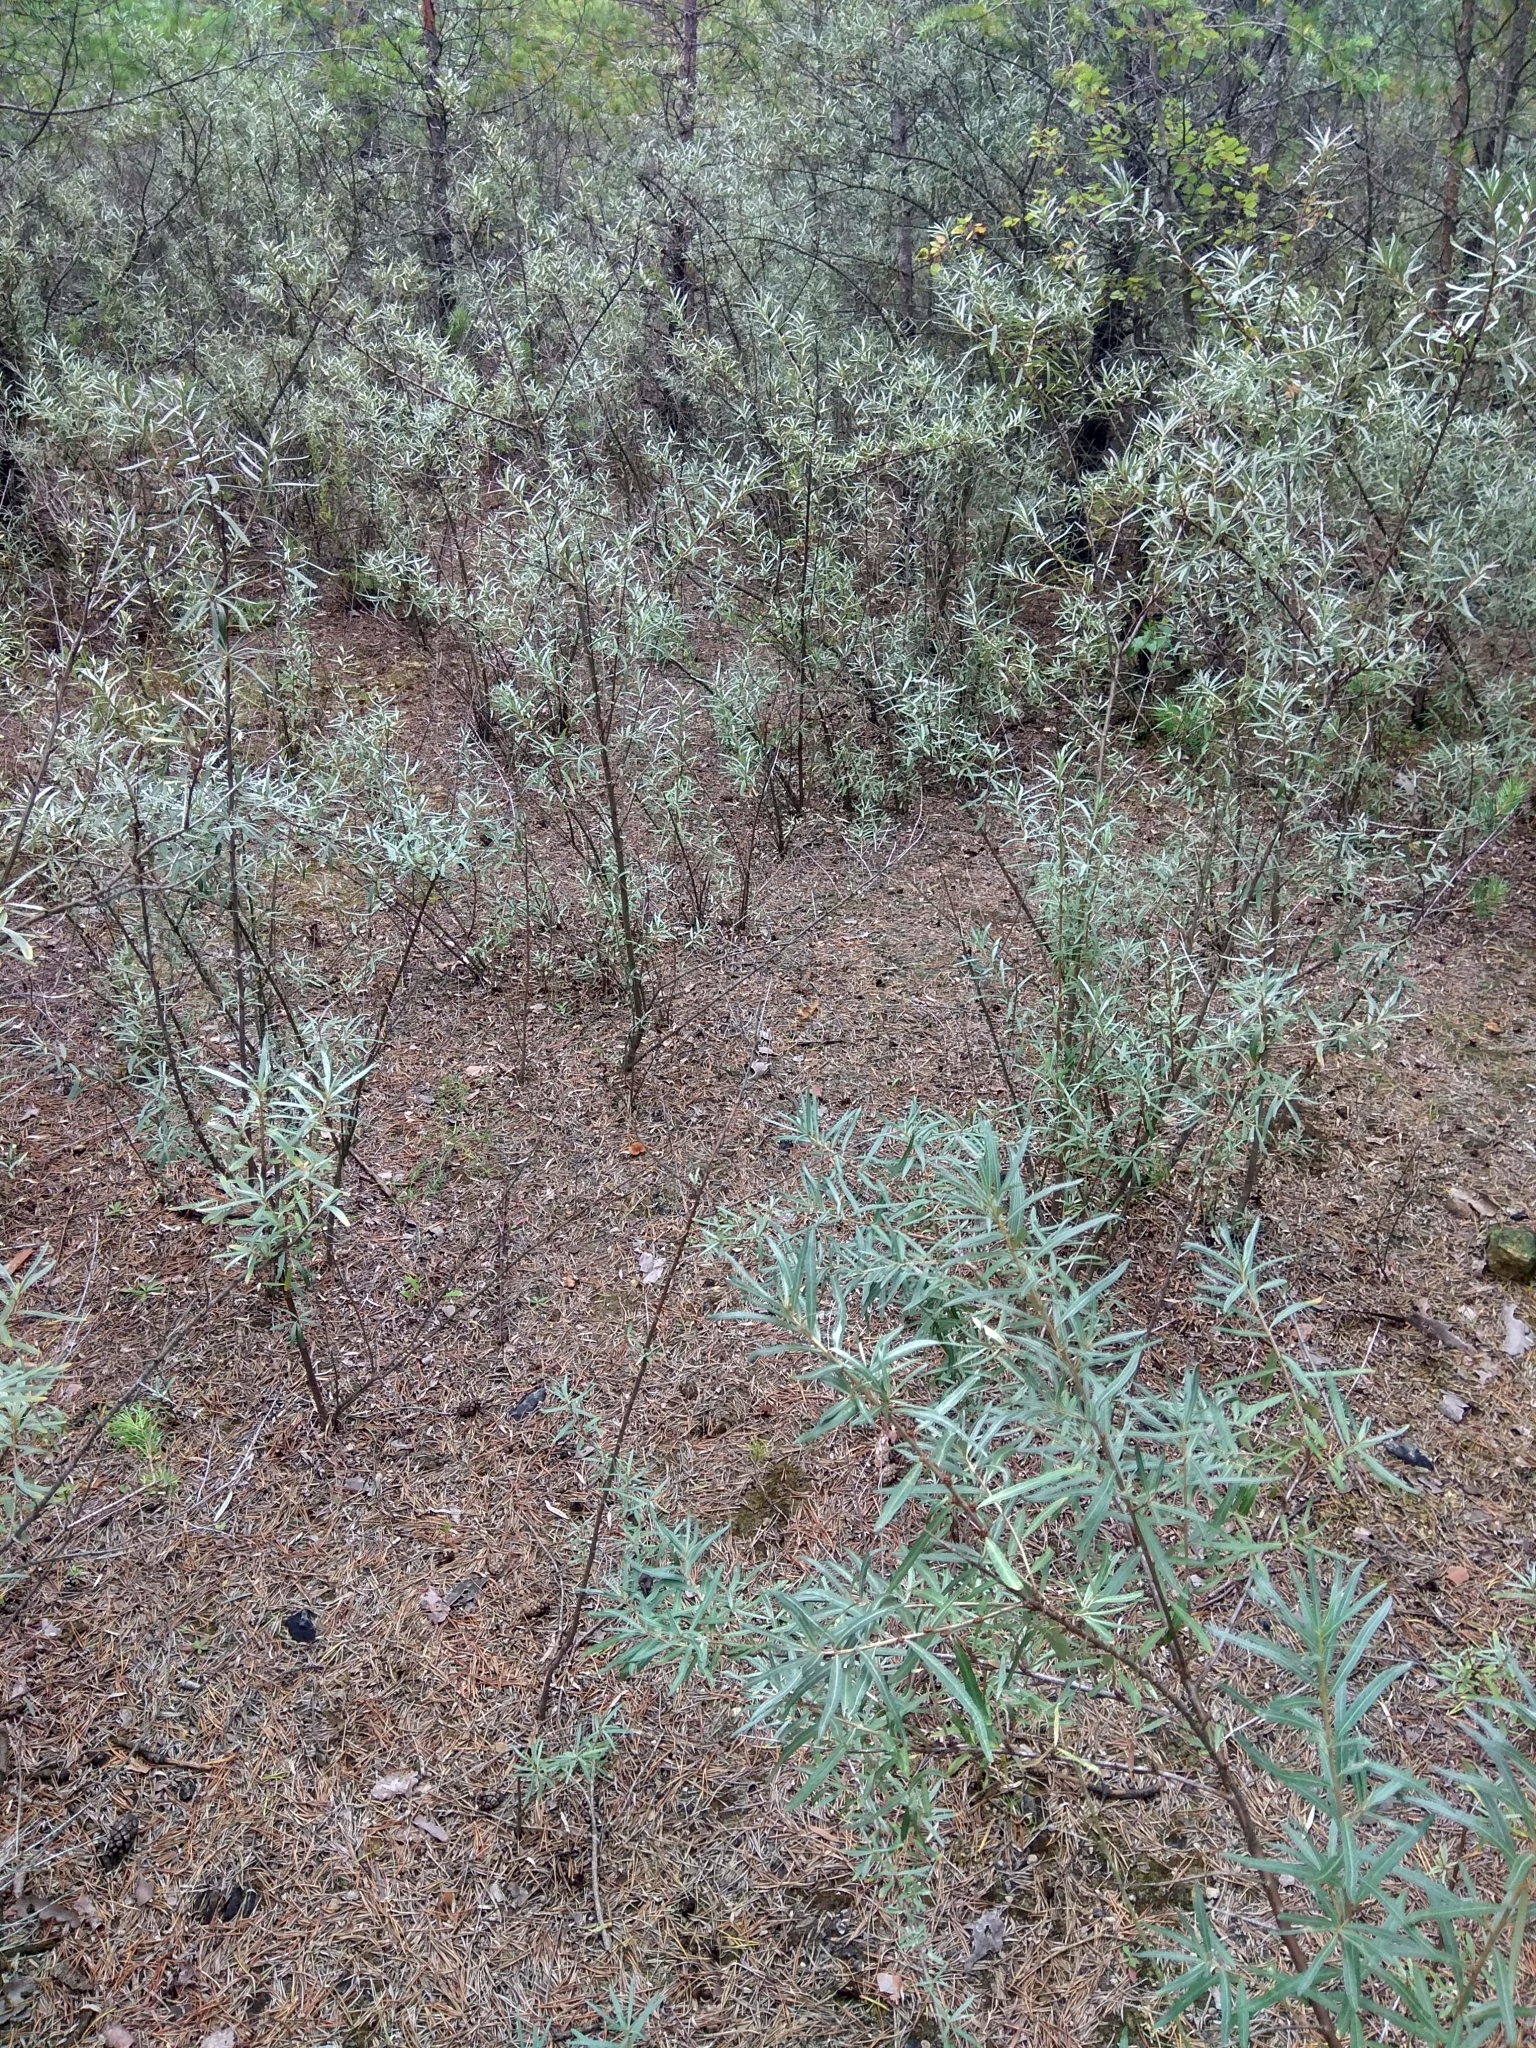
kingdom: Plantae
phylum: Tracheophyta
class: Magnoliopsida
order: Rosales
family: Elaeagnaceae
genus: Hippophae
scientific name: Hippophae rhamnoides
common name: Sea-buckthorn
